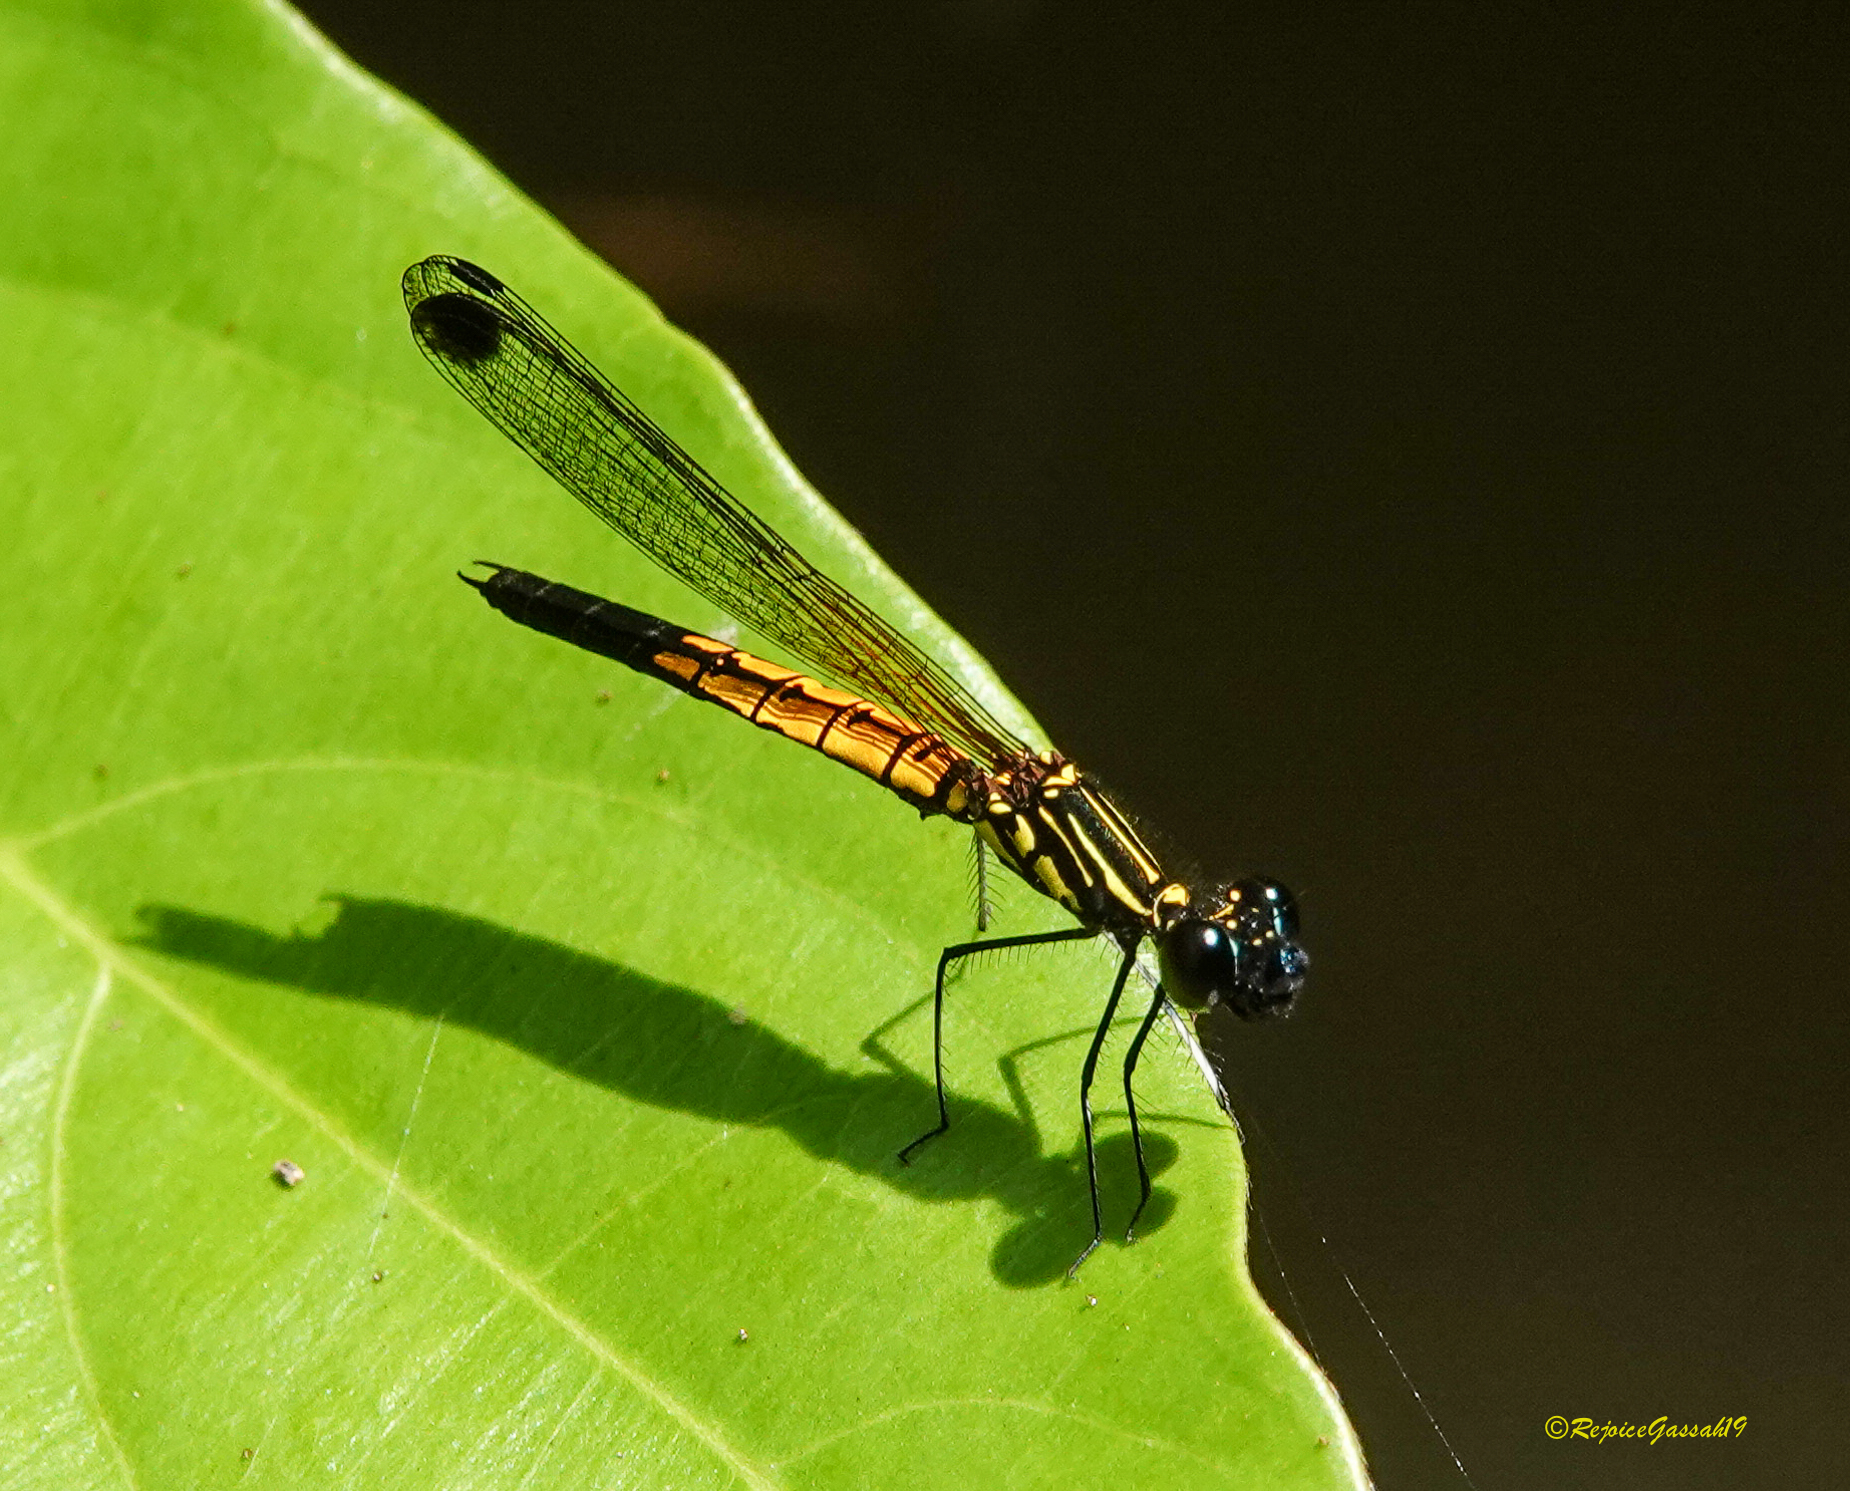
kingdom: Animalia
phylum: Arthropoda
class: Insecta
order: Odonata
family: Chlorocyphidae
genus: Libellago
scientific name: Libellago lineata
